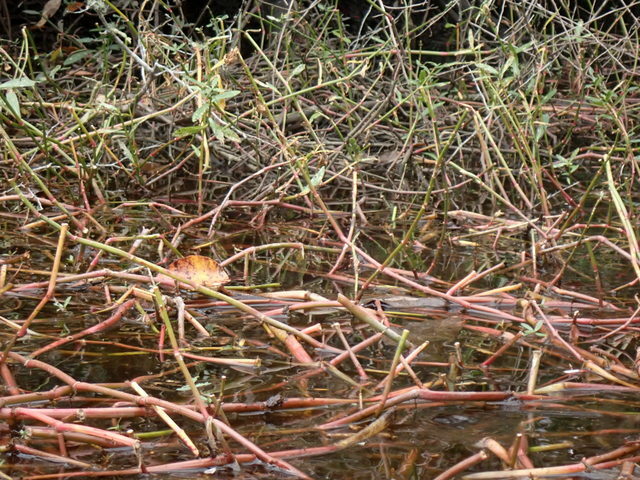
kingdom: Plantae
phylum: Tracheophyta
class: Magnoliopsida
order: Caryophyllales
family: Amaranthaceae
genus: Alternanthera
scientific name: Alternanthera philoxeroides
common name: Alligatorweed
